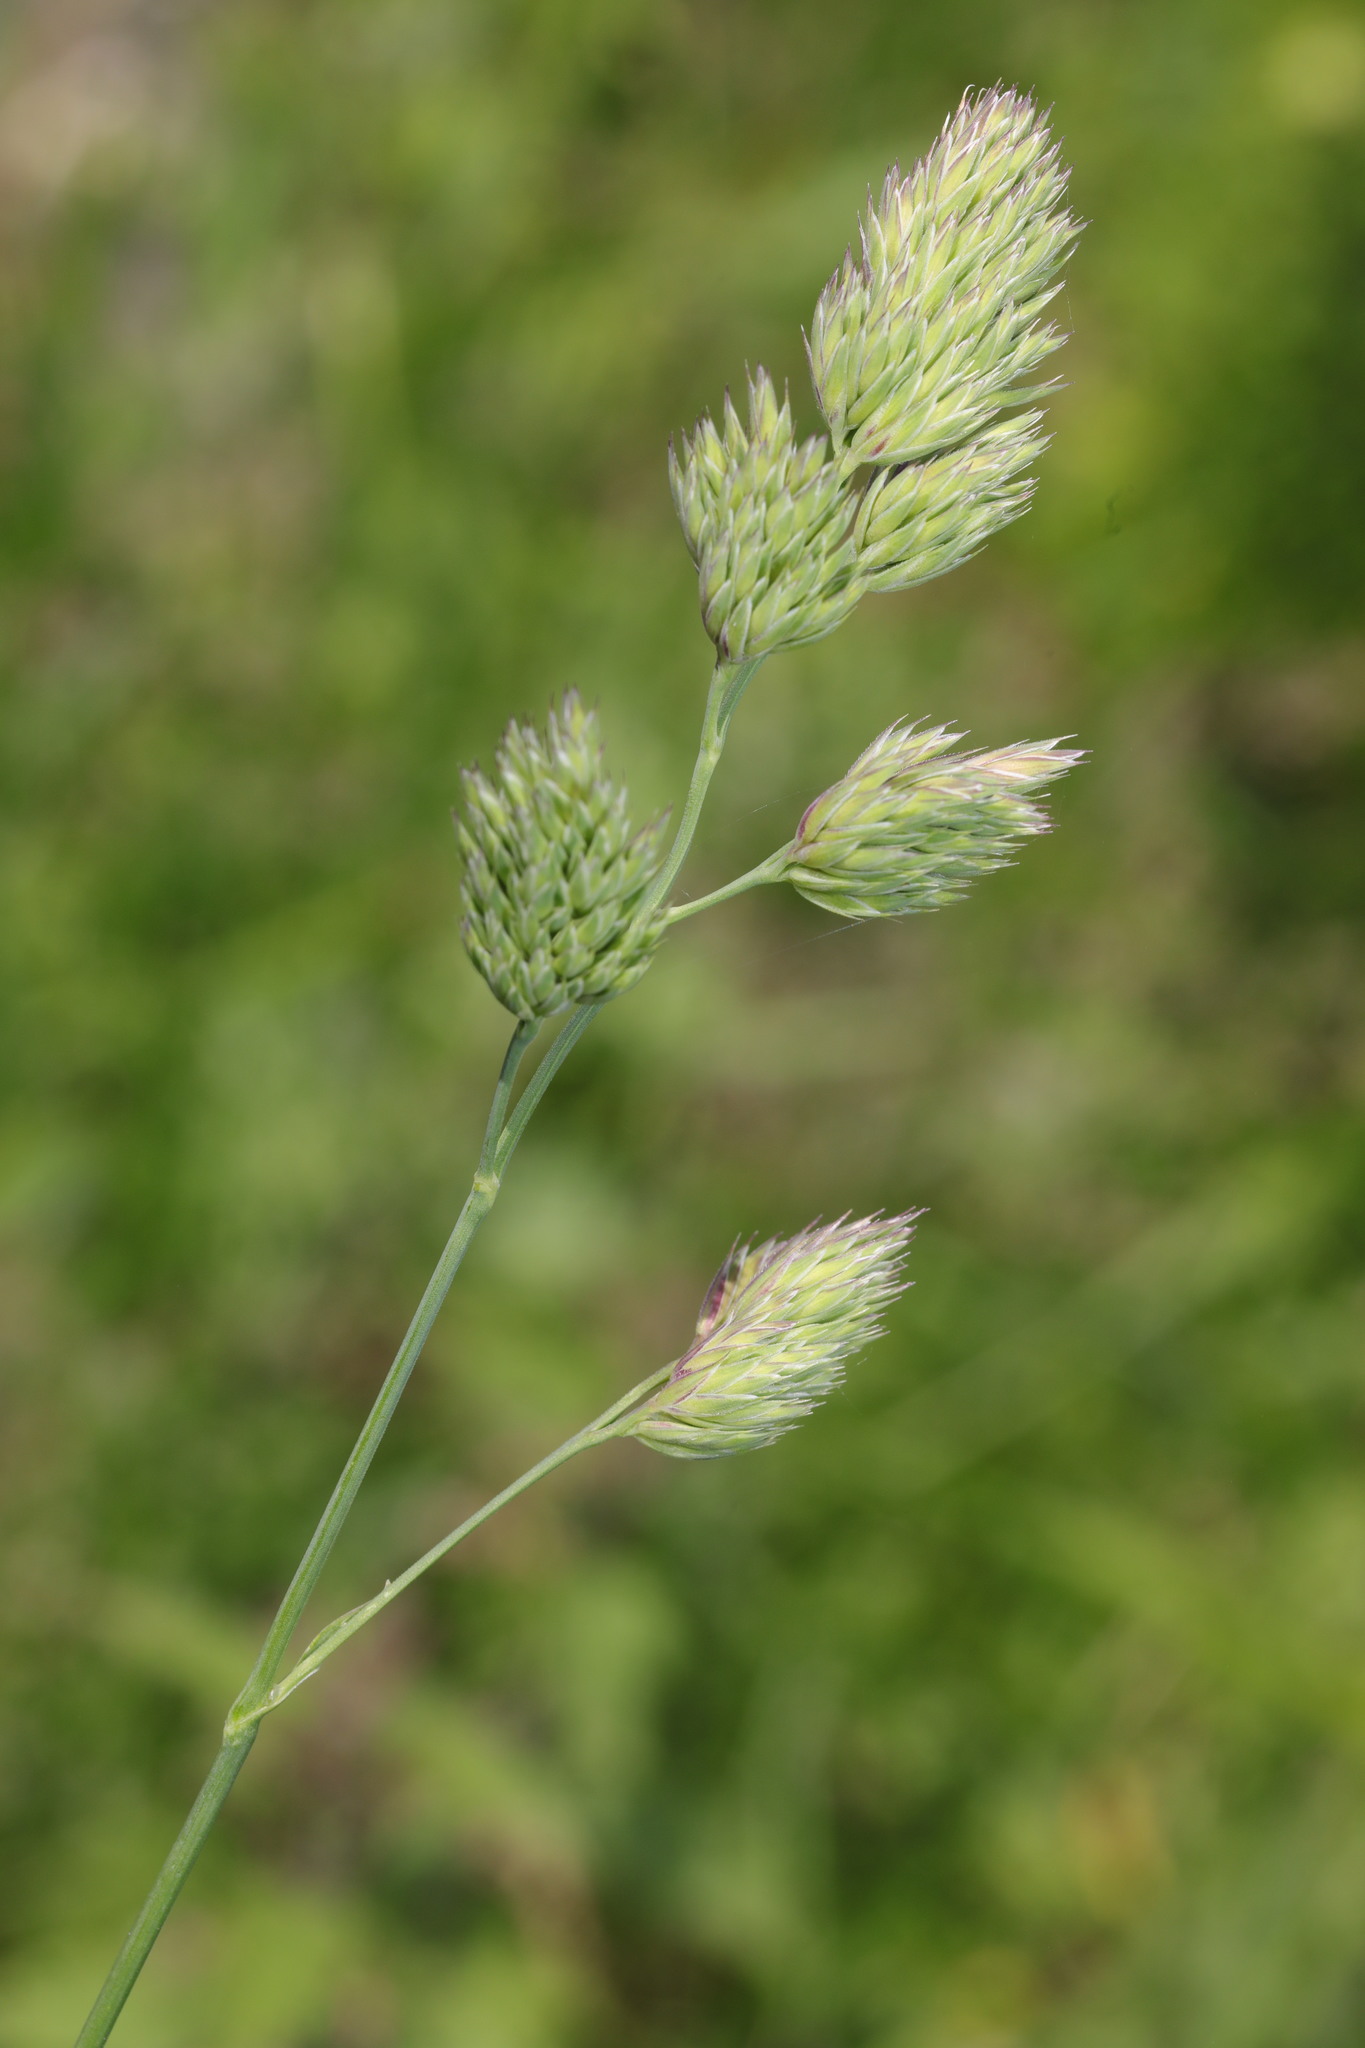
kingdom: Plantae
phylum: Tracheophyta
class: Liliopsida
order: Poales
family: Poaceae
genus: Dactylis
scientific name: Dactylis glomerata
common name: Orchardgrass
